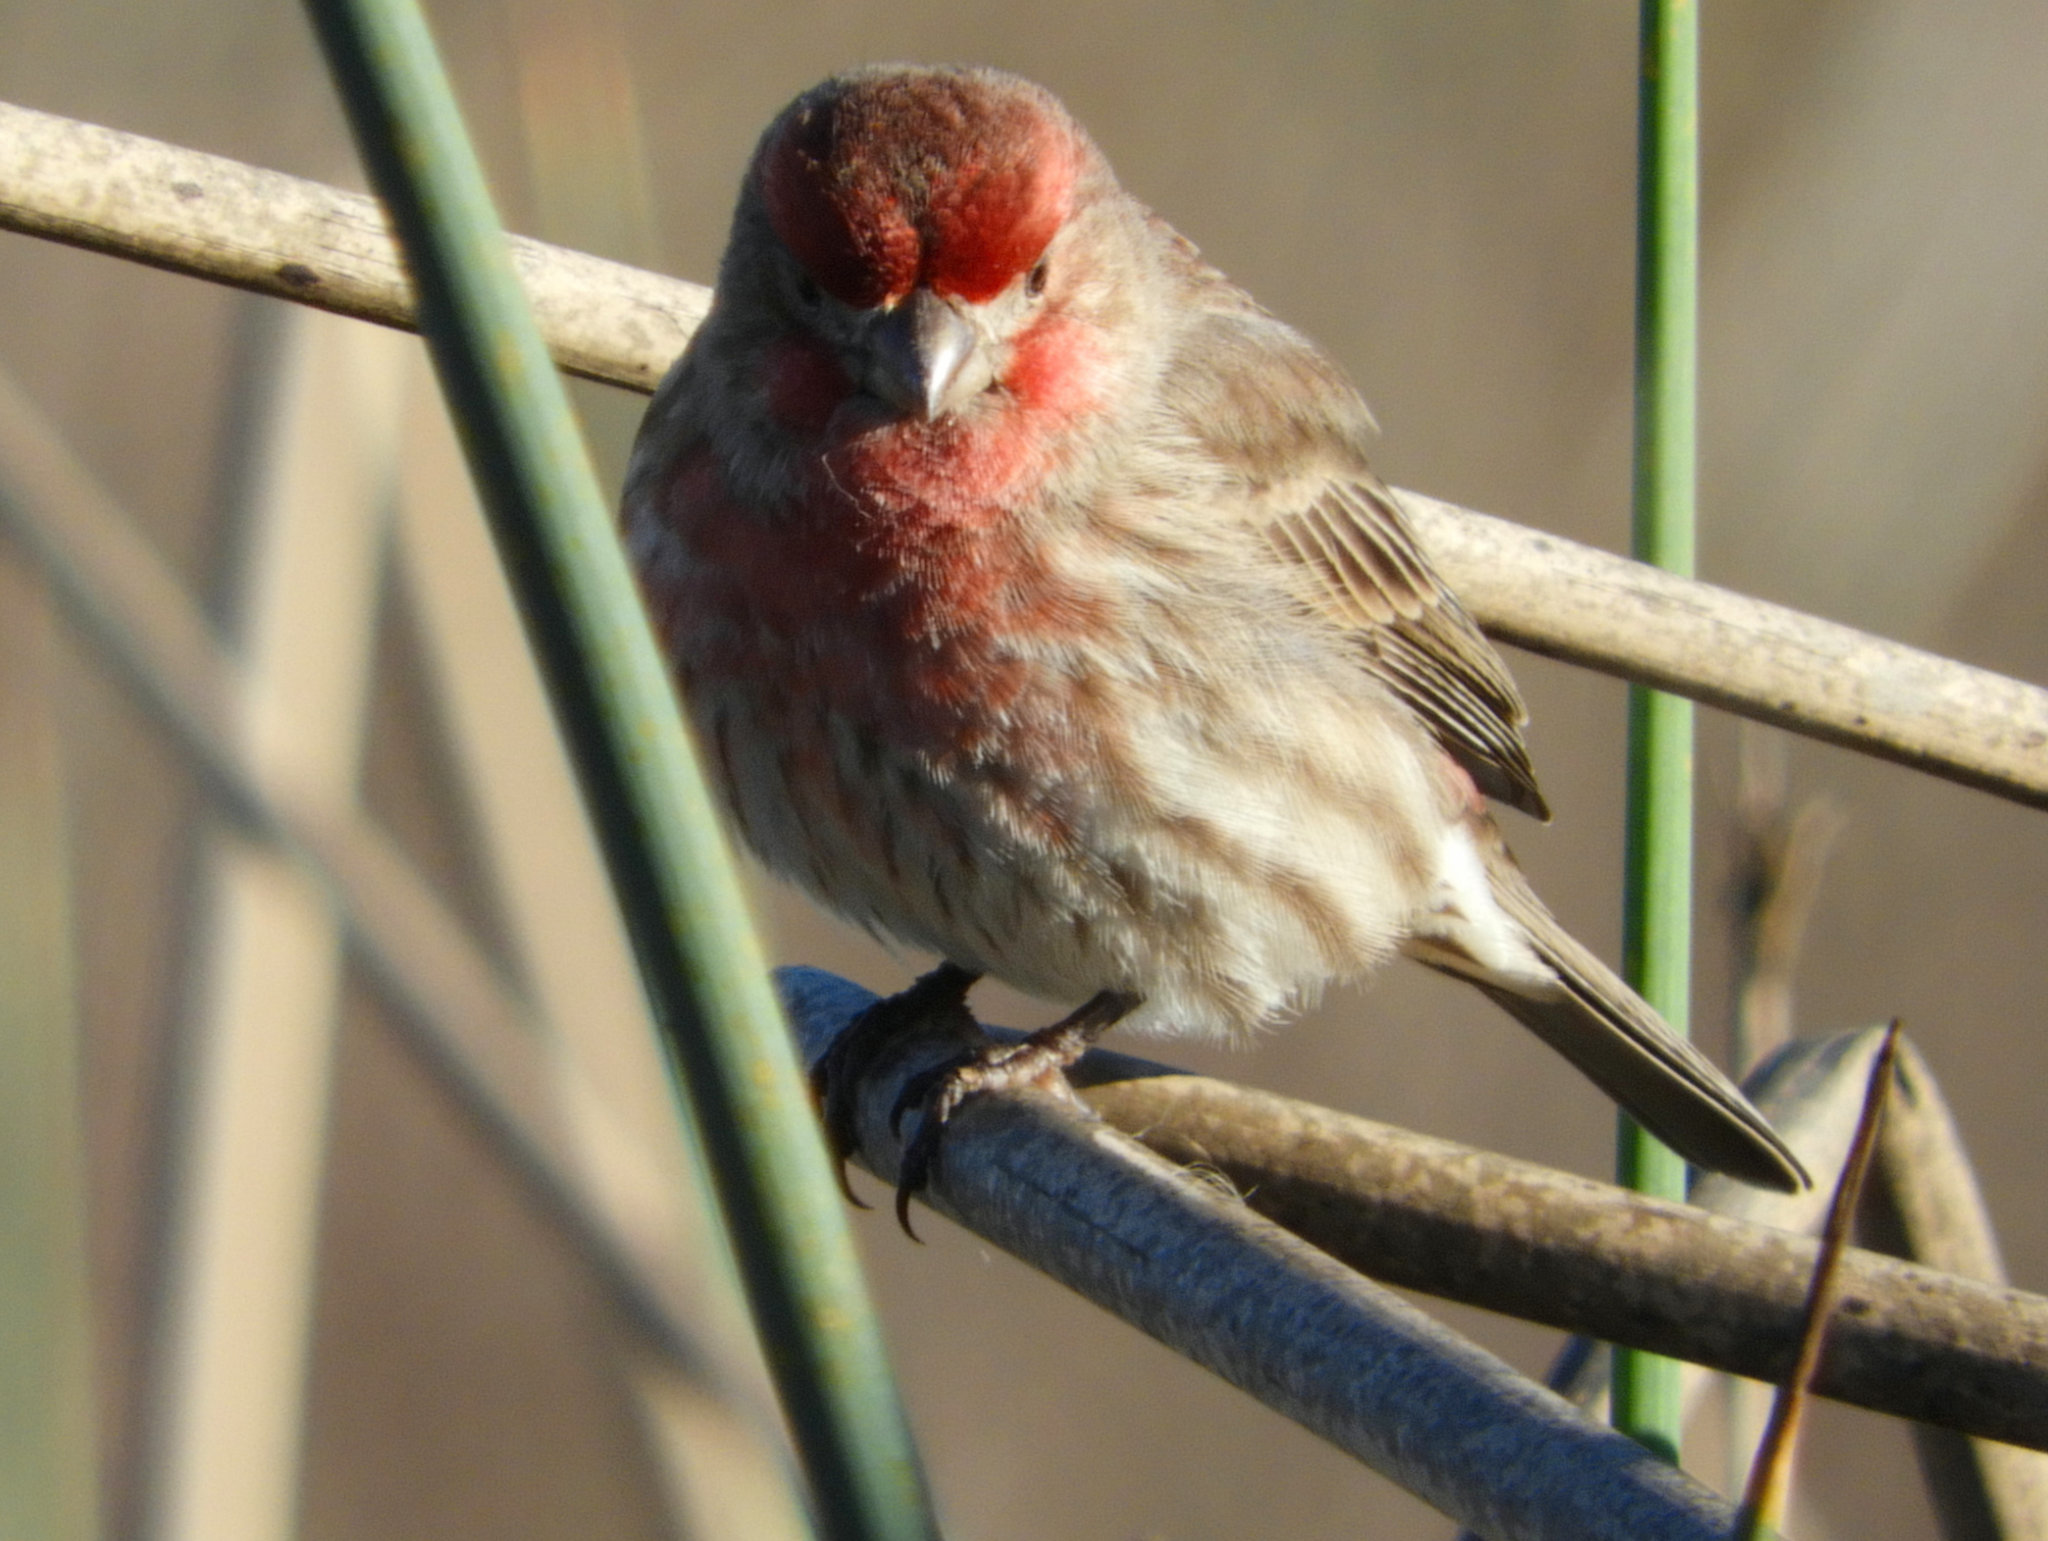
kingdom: Animalia
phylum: Chordata
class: Aves
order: Passeriformes
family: Fringillidae
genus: Haemorhous
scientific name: Haemorhous mexicanus
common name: House finch
